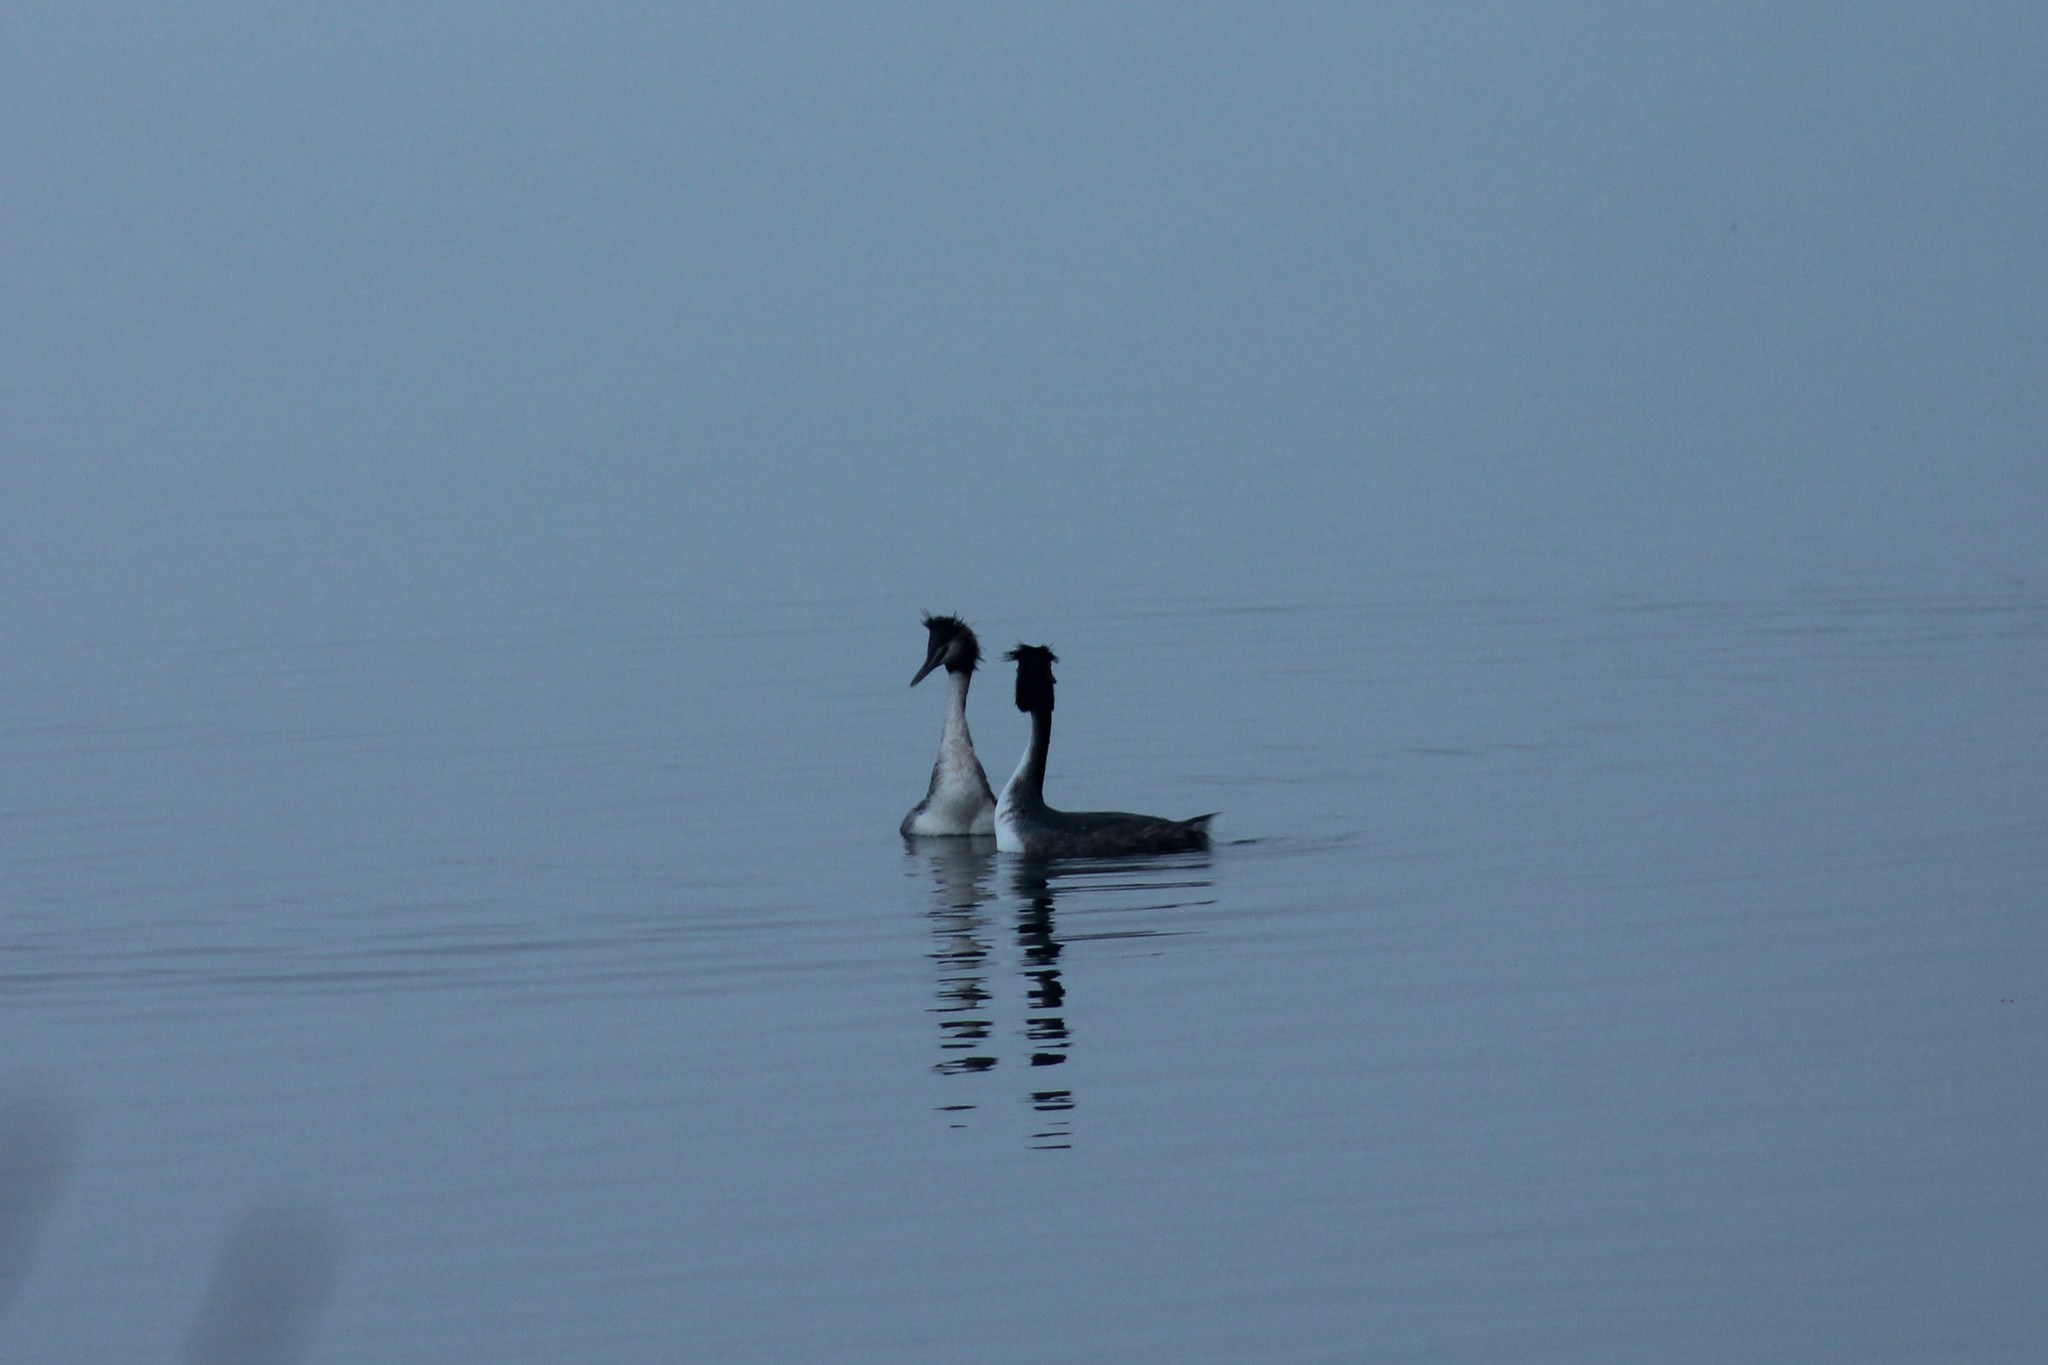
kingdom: Animalia
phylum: Chordata
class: Aves
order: Podicipediformes
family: Podicipedidae
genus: Podiceps
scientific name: Podiceps cristatus
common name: Great crested grebe
